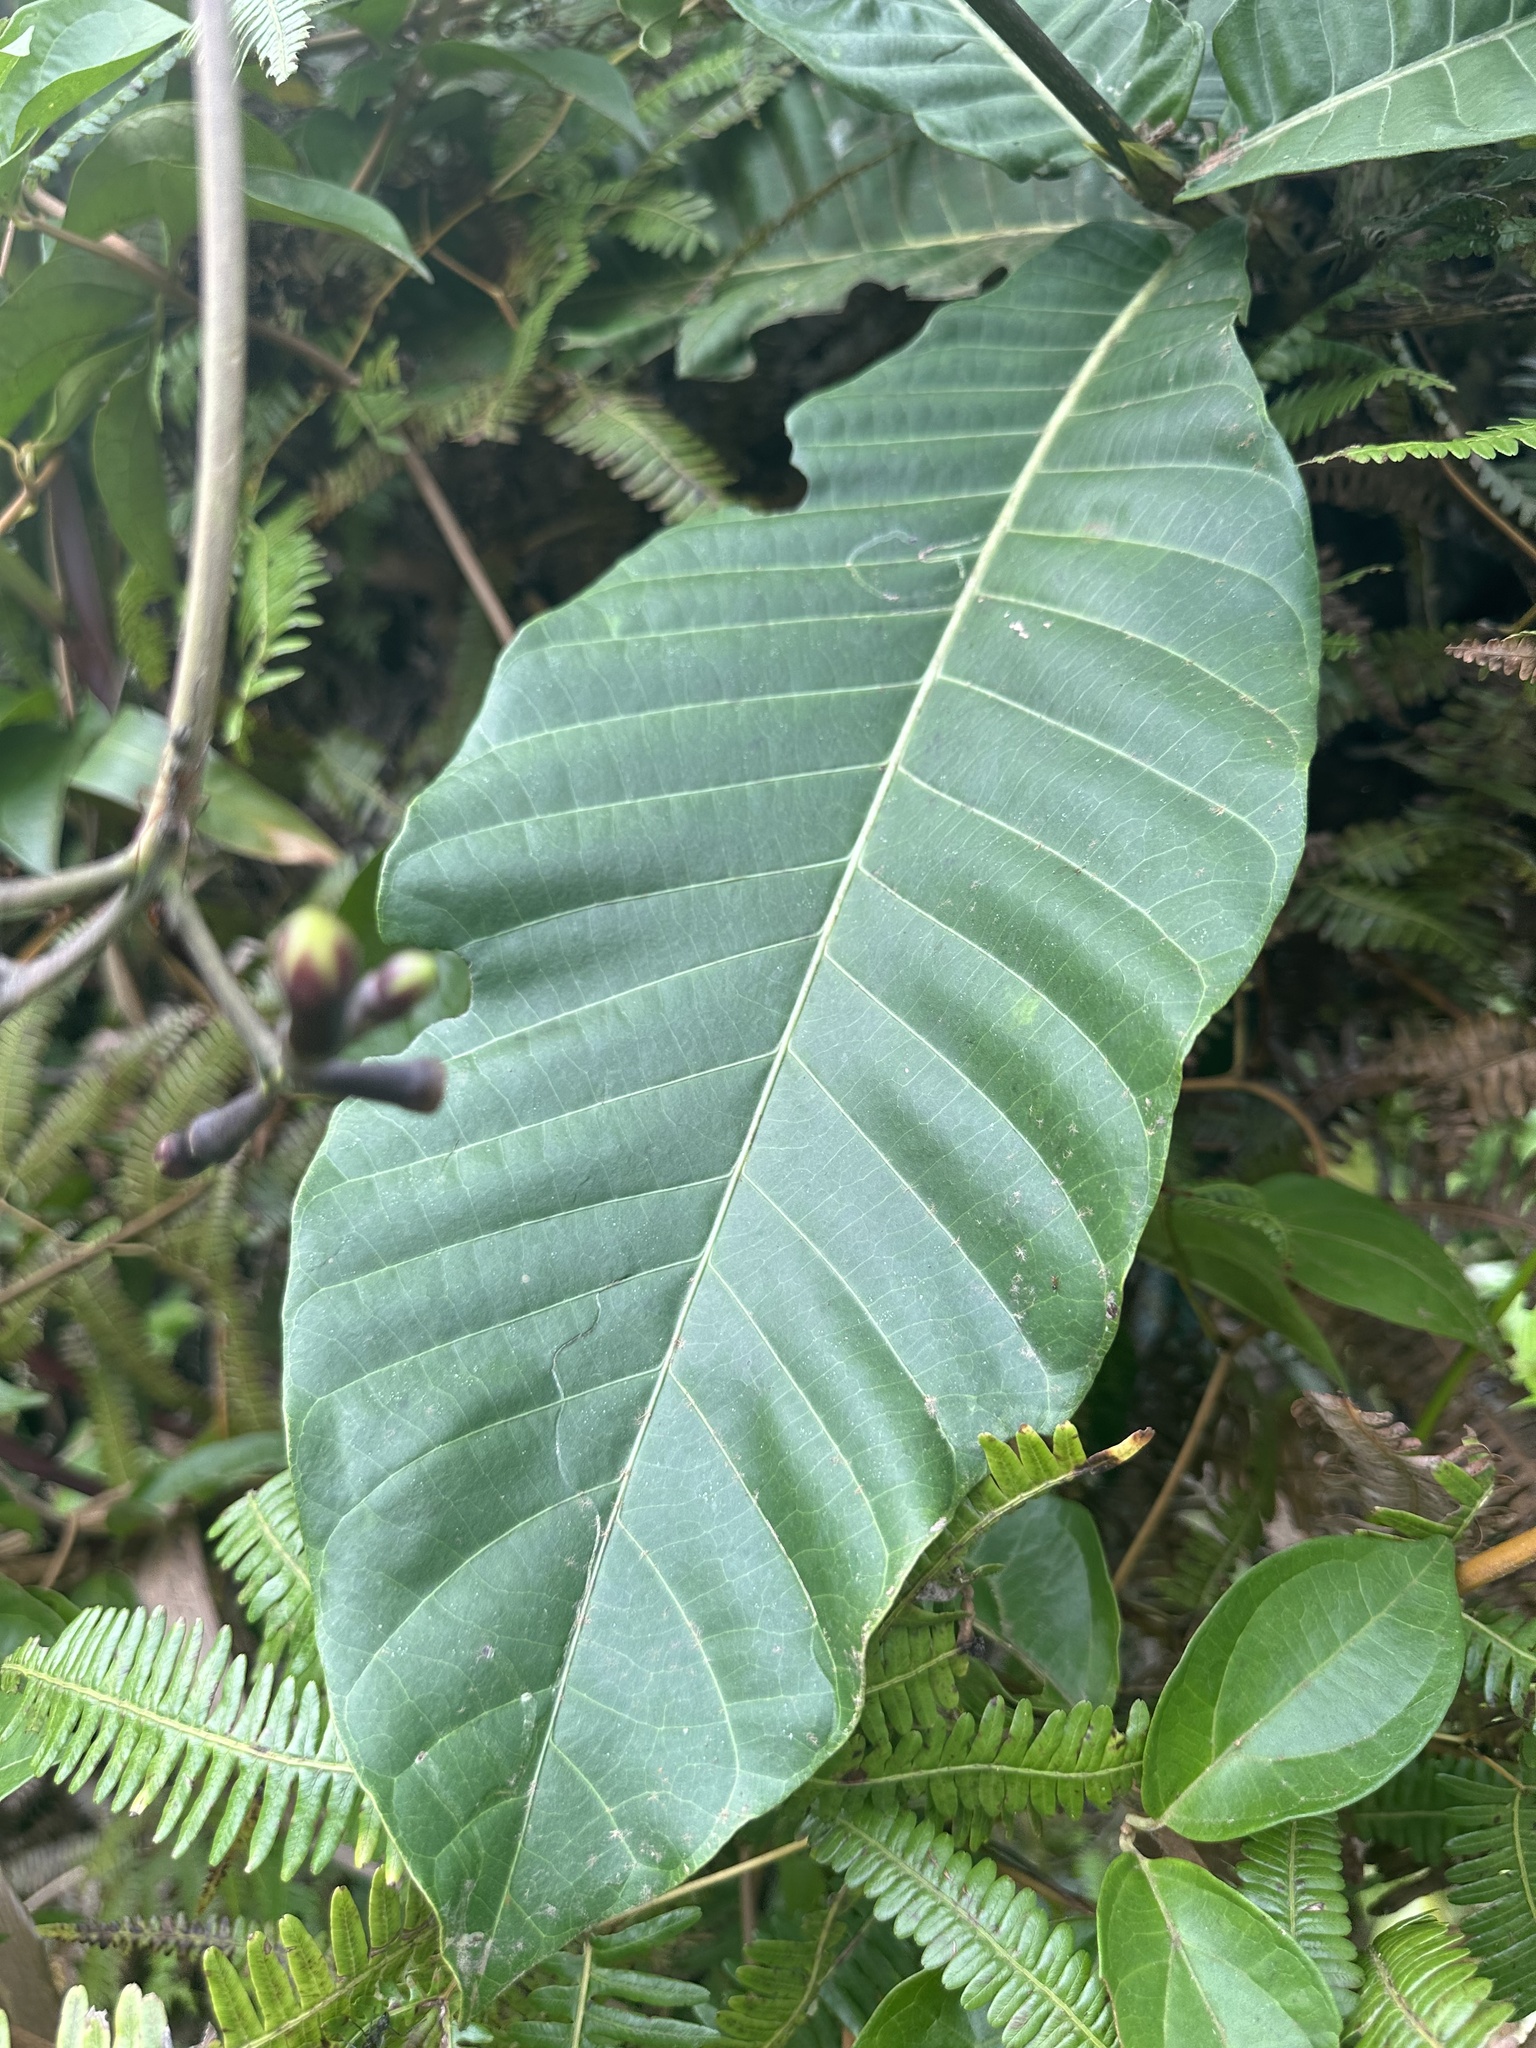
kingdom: Plantae
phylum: Tracheophyta
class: Magnoliopsida
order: Gentianales
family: Rubiaceae
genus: Condaminea
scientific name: Condaminea corymbosa
